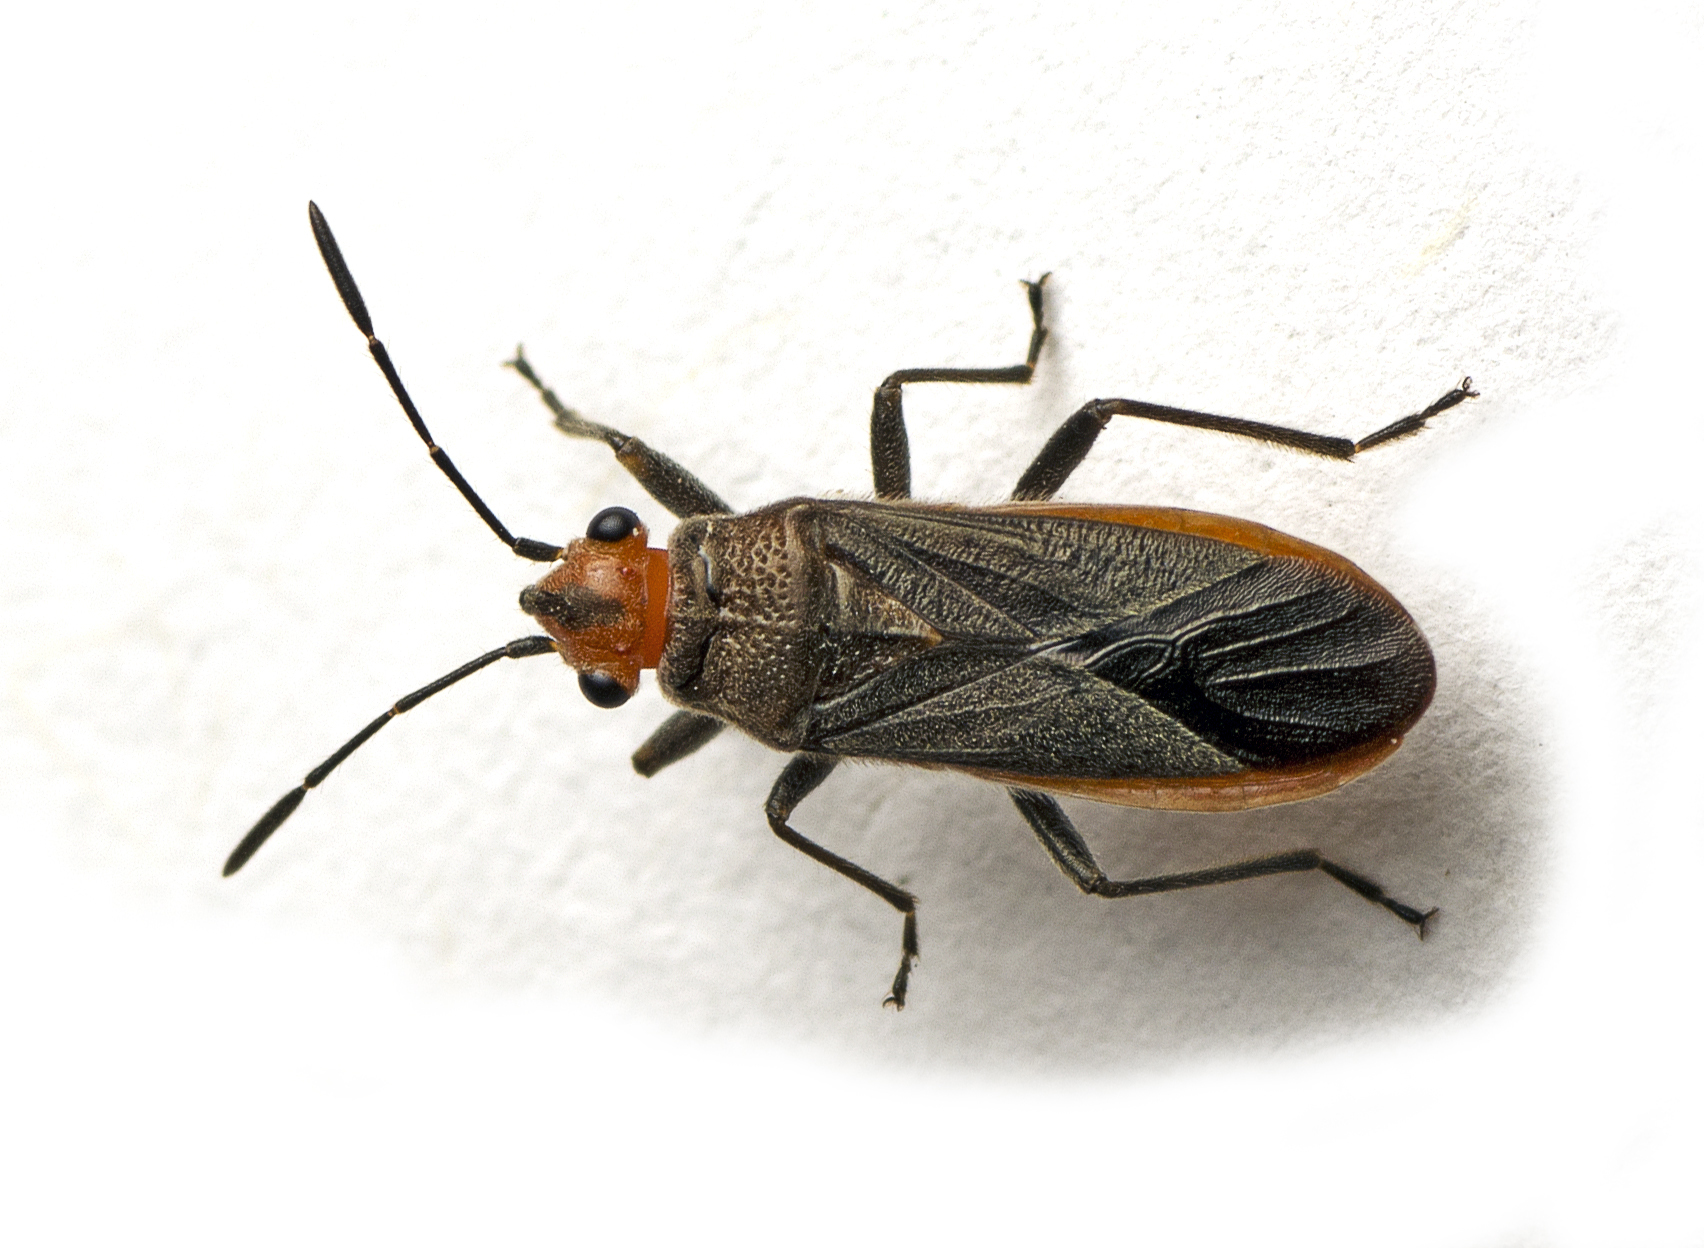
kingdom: Animalia
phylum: Arthropoda
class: Insecta
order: Hemiptera
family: Lygaeidae
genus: Arocatus
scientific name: Arocatus aenescens
